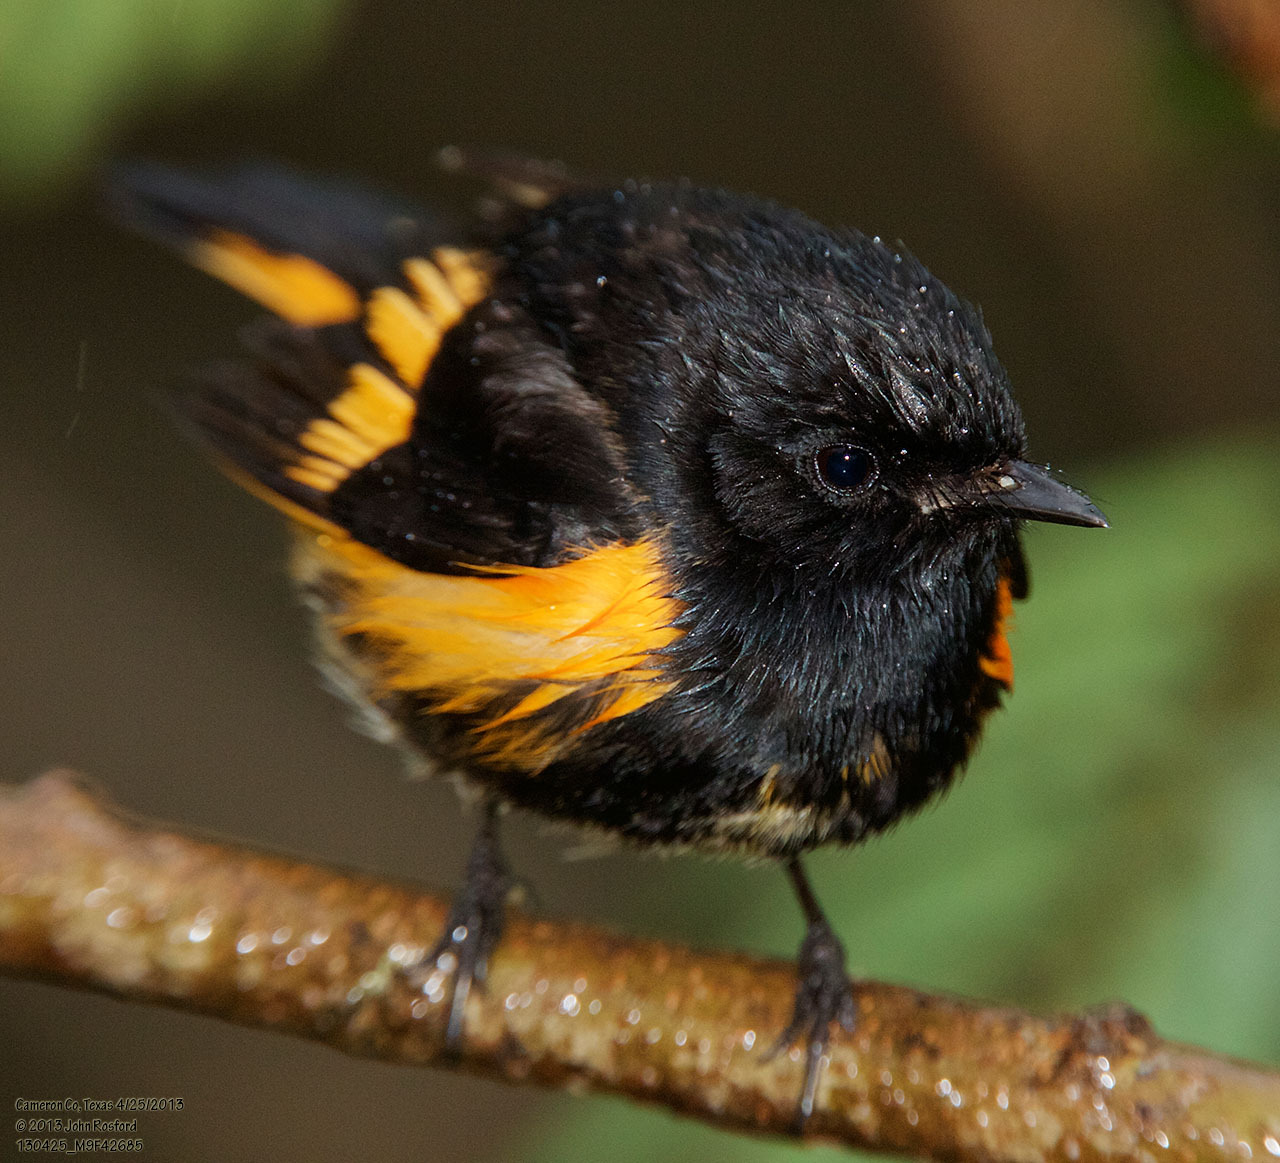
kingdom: Animalia
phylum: Chordata
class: Aves
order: Passeriformes
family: Parulidae
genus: Setophaga
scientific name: Setophaga ruticilla
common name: American redstart
